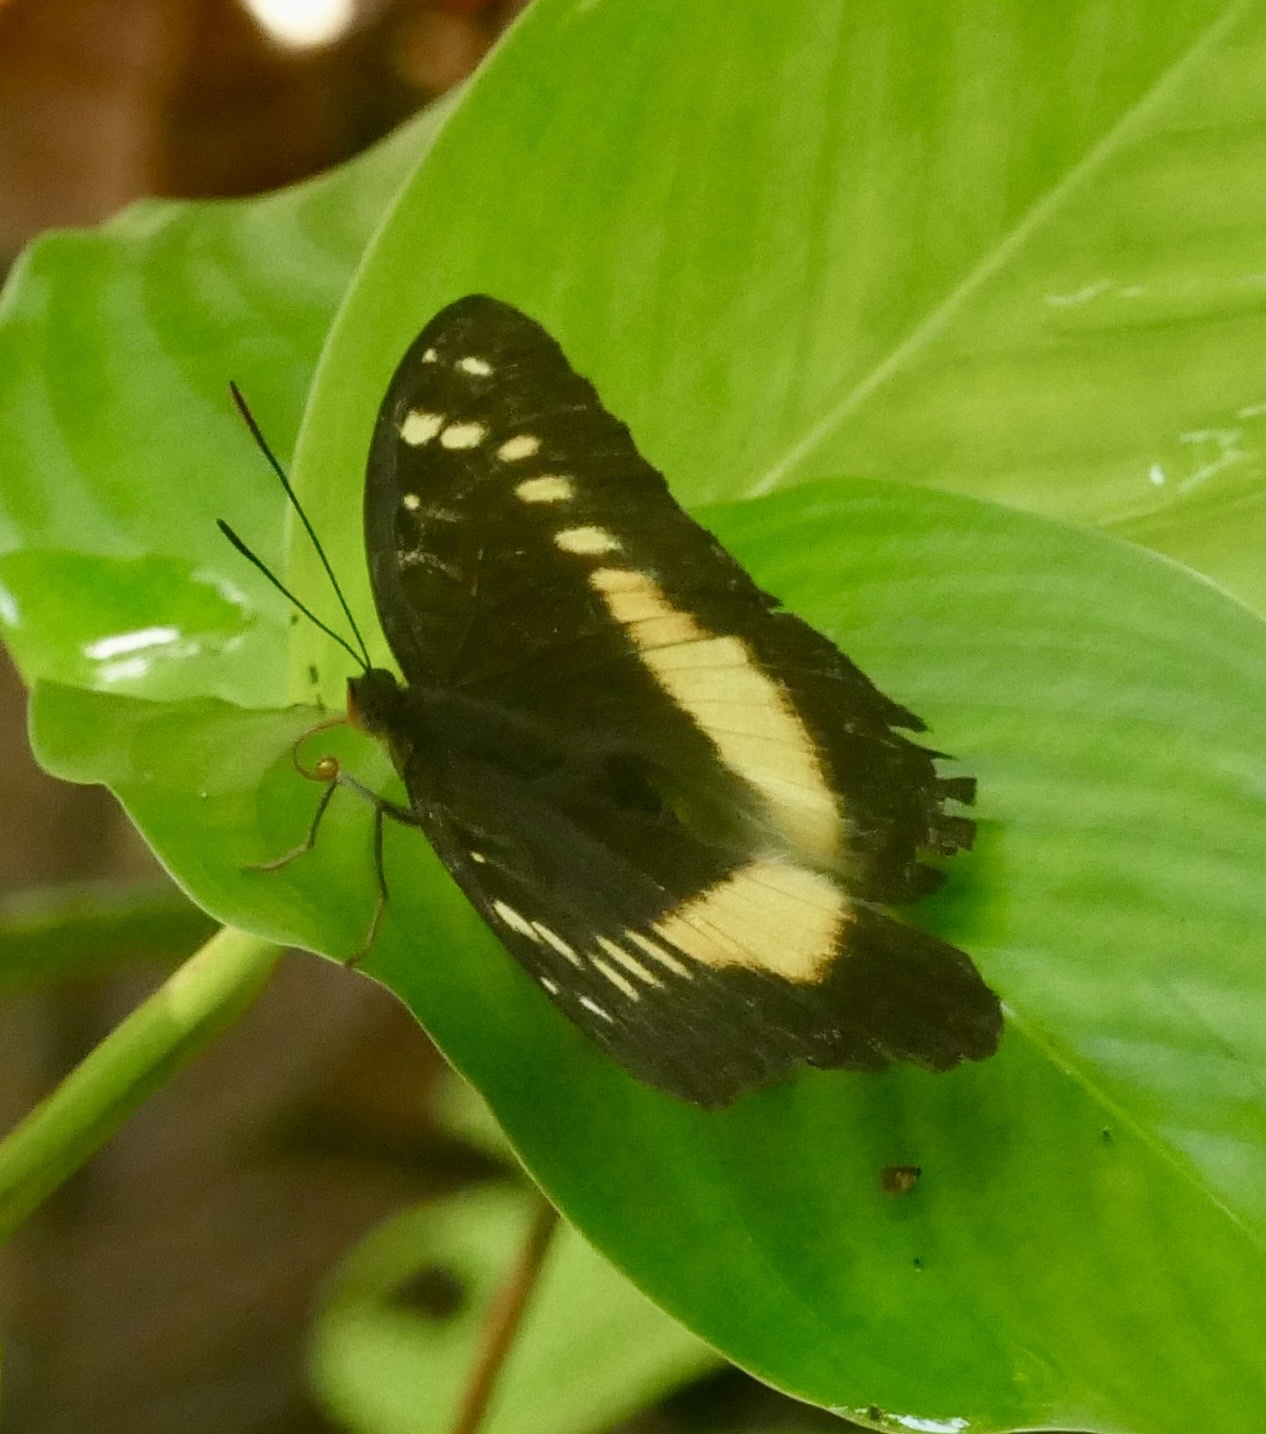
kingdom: Animalia
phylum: Arthropoda
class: Insecta
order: Lepidoptera
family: Nymphalidae
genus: Lexias
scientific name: Lexias aeropa
